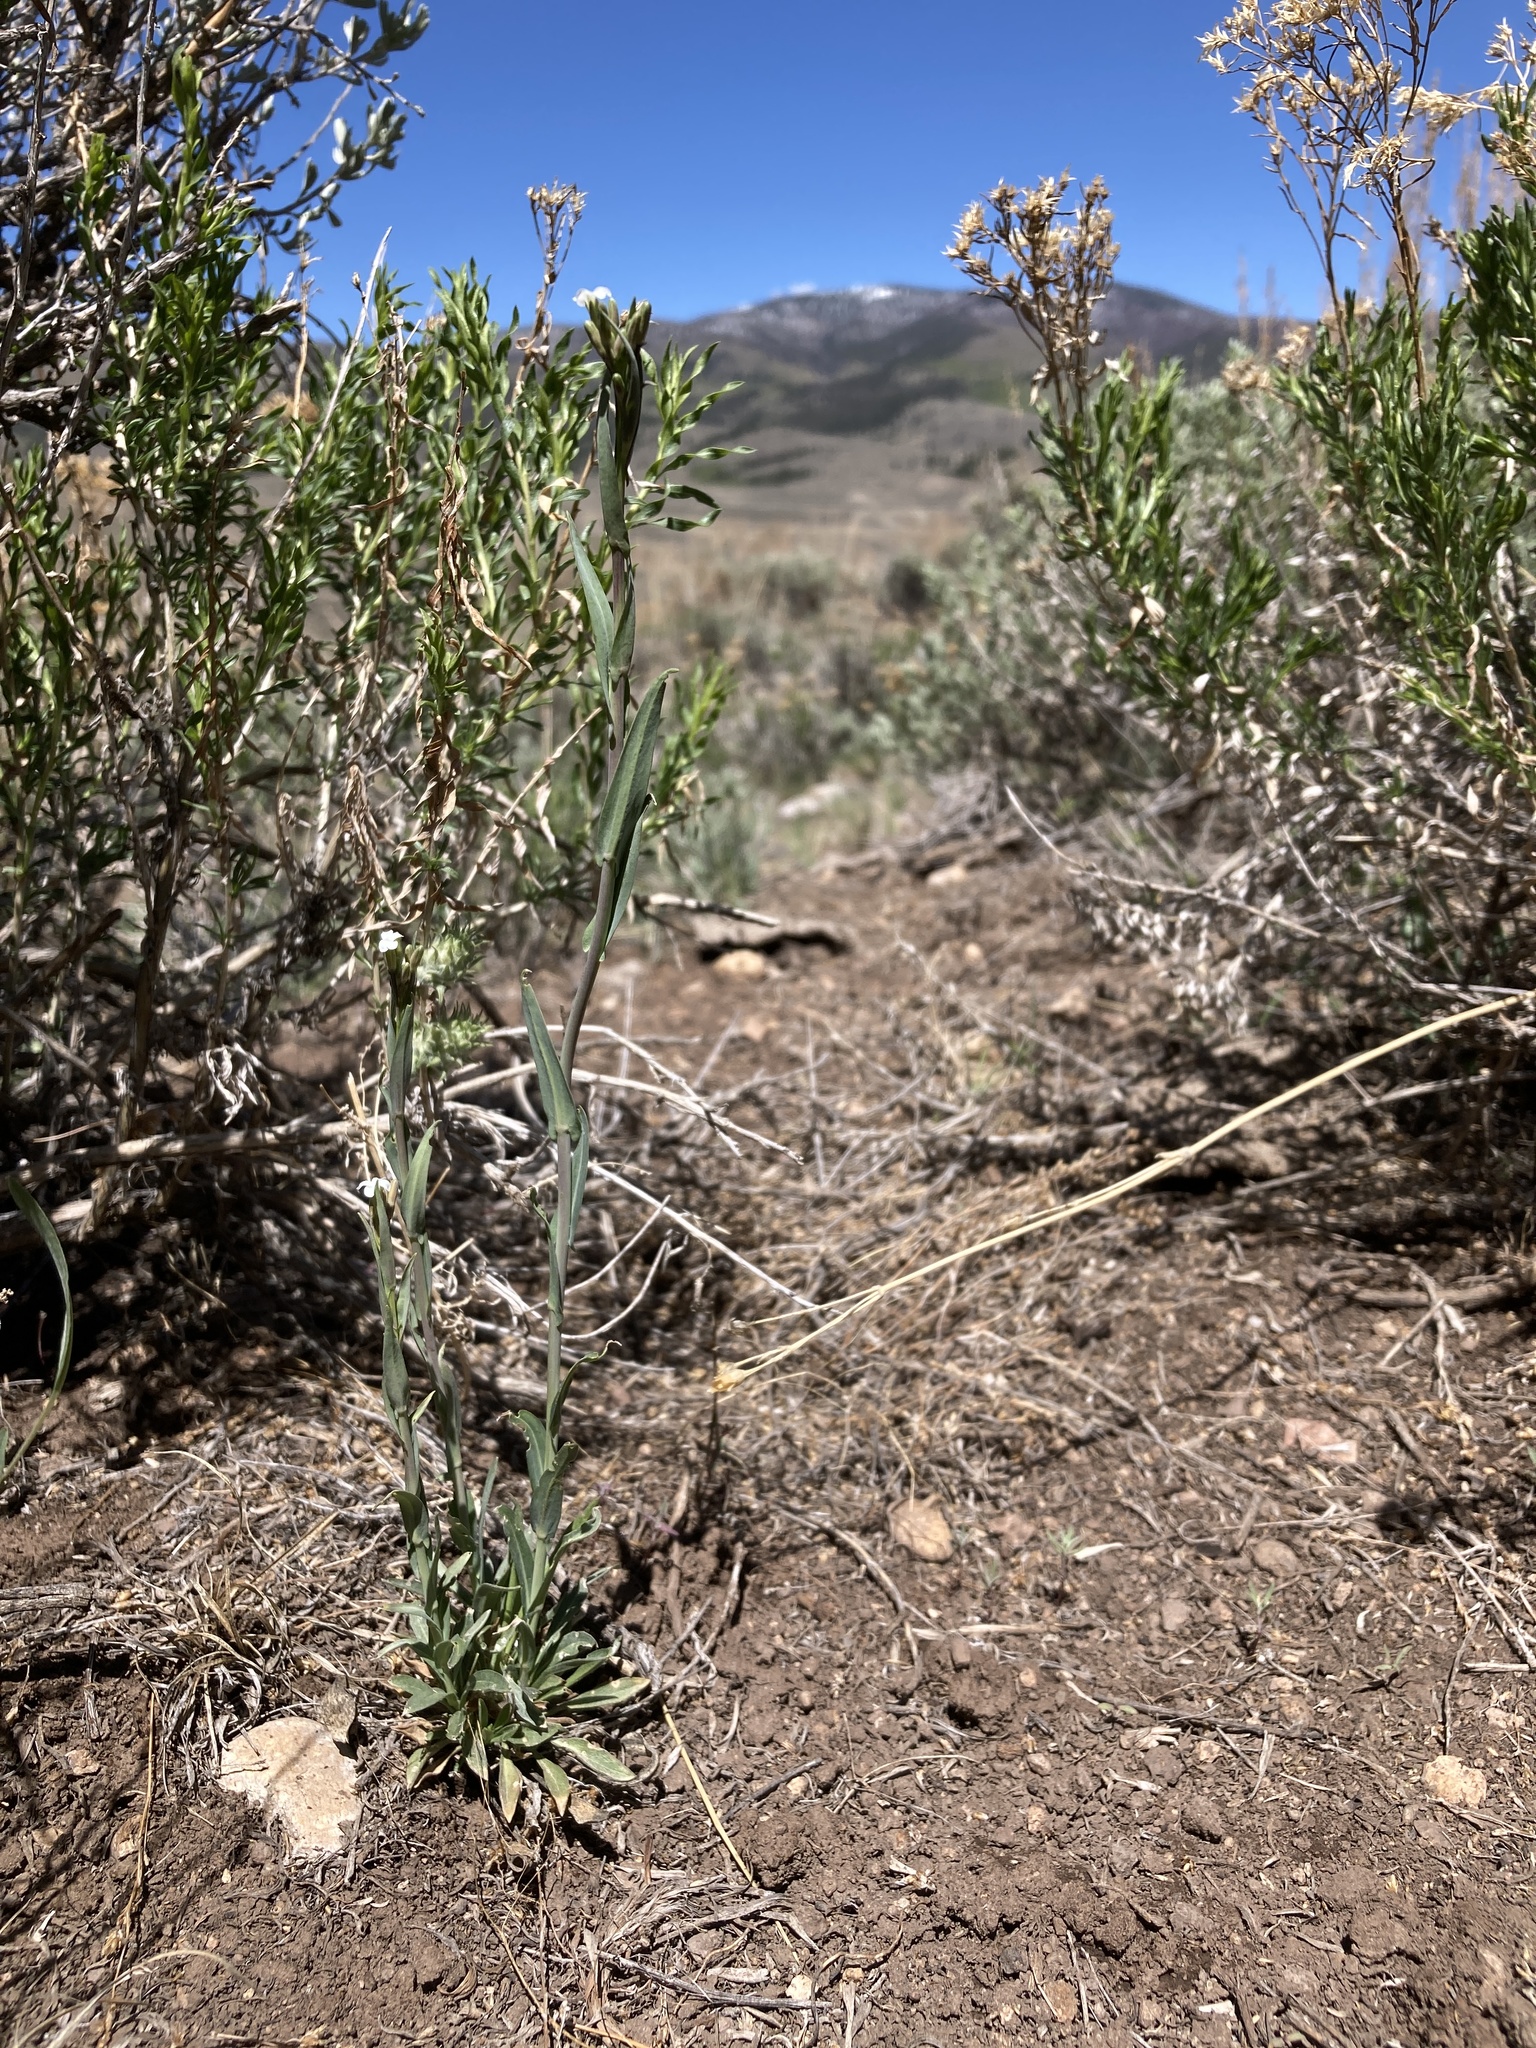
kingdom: Plantae
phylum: Tracheophyta
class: Magnoliopsida
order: Brassicales
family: Brassicaceae
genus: Boechera
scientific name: Boechera stricta
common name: Canadian rockcress
